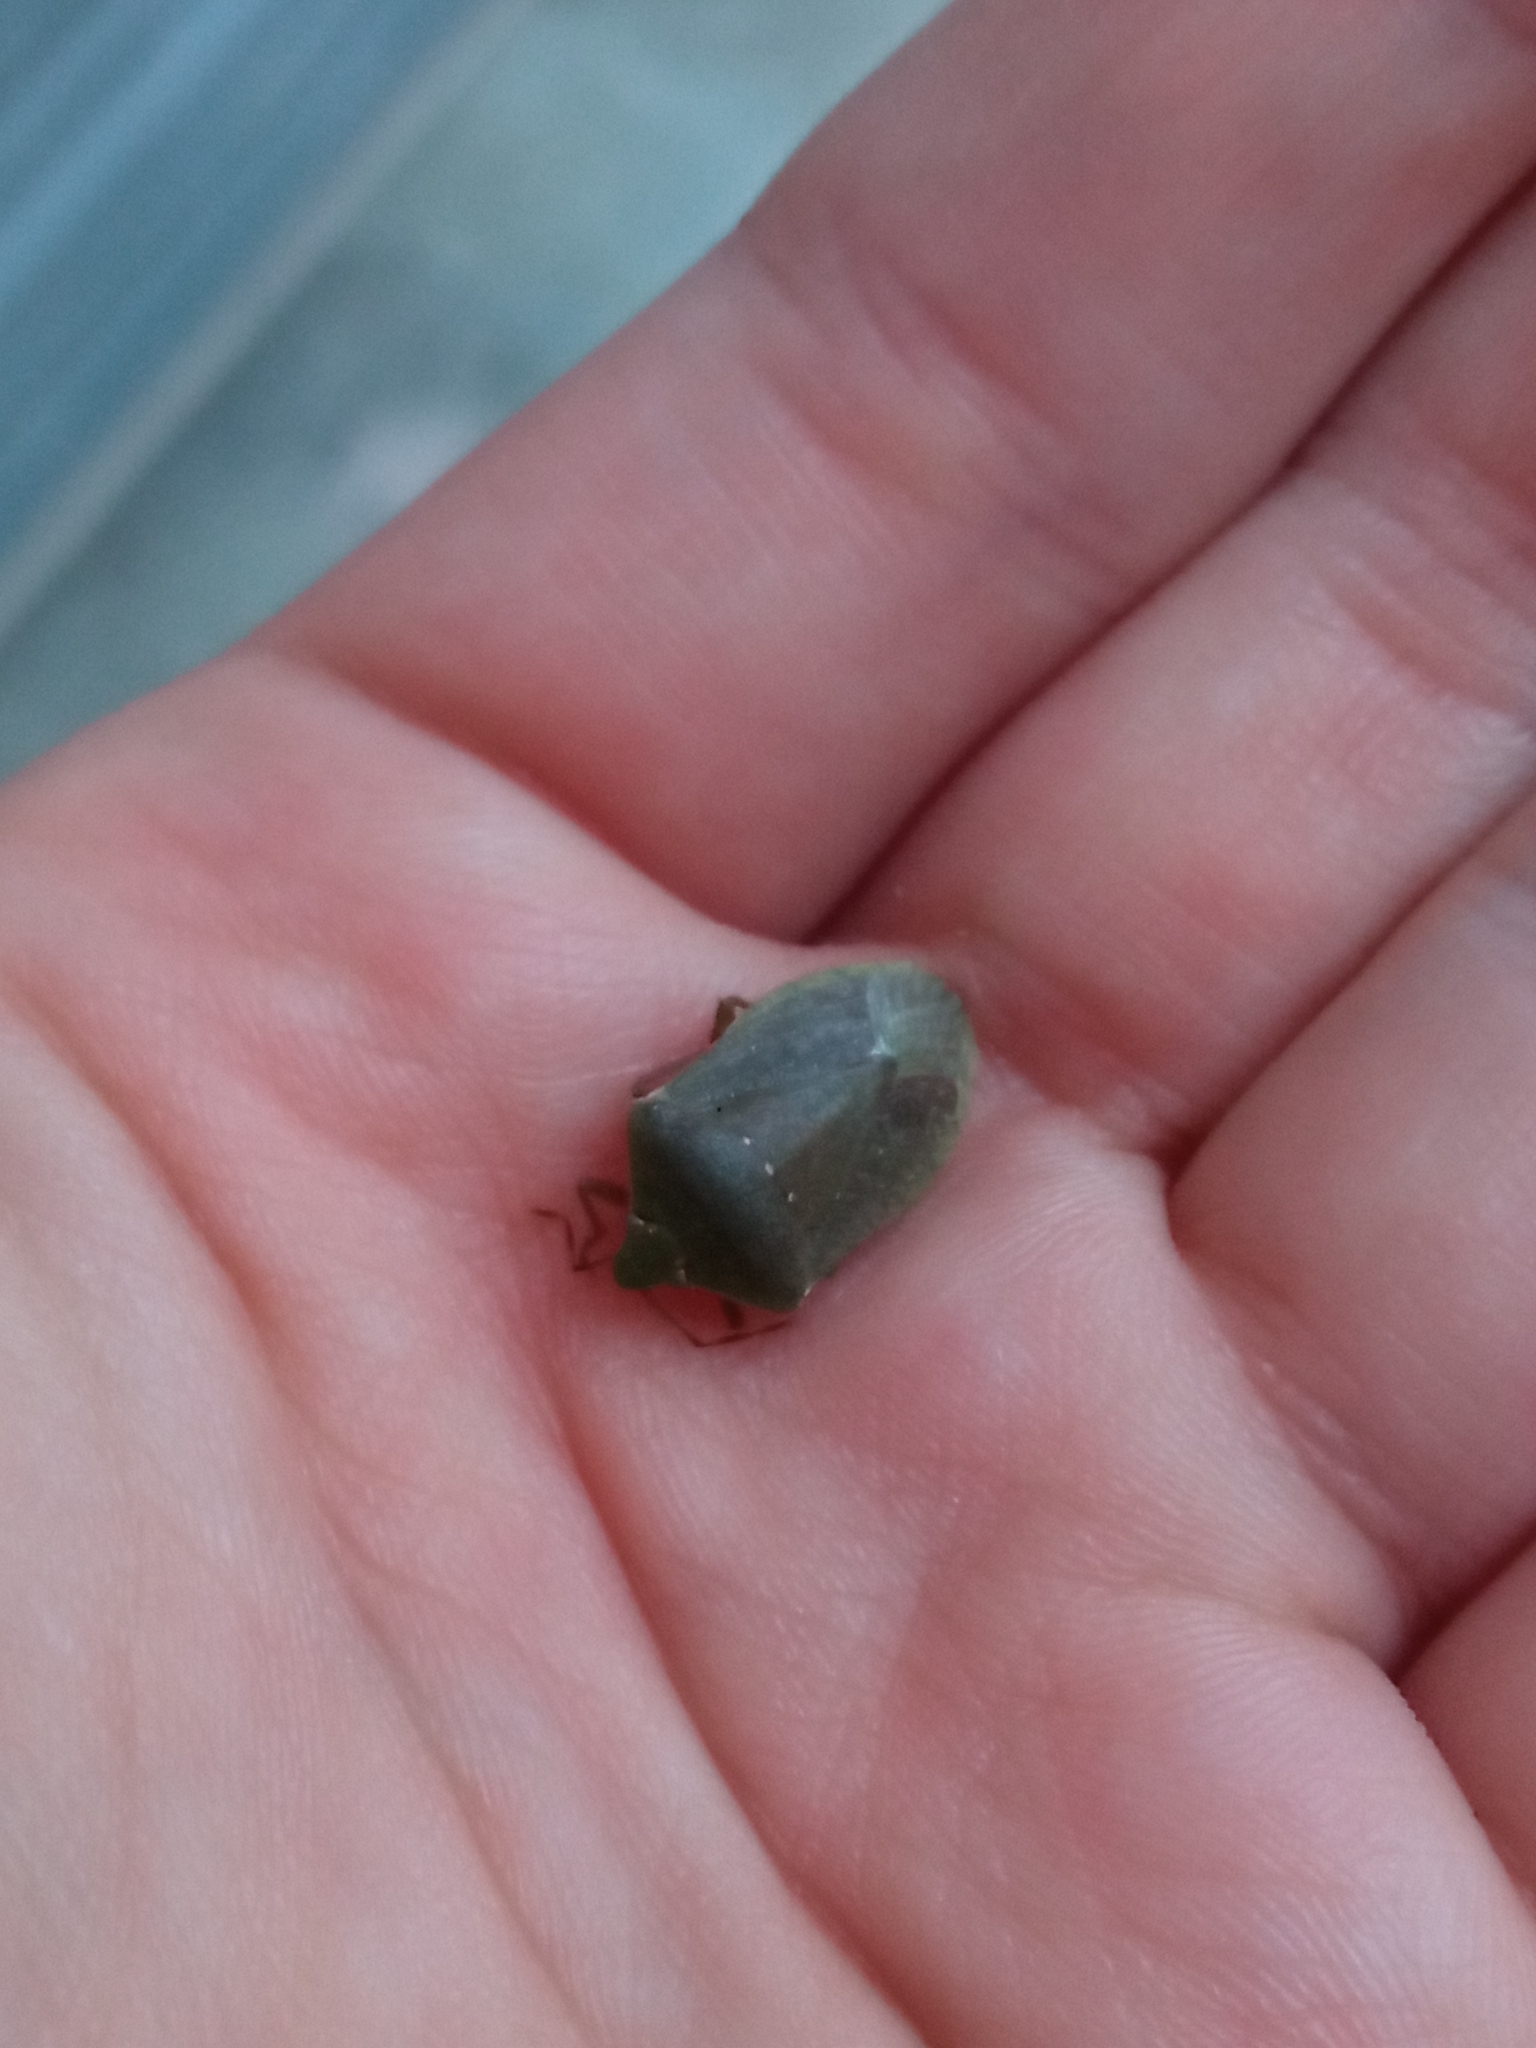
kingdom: Animalia
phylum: Arthropoda
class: Insecta
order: Hemiptera
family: Pentatomidae
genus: Nezara
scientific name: Nezara viridula
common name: Southern green stink bug
